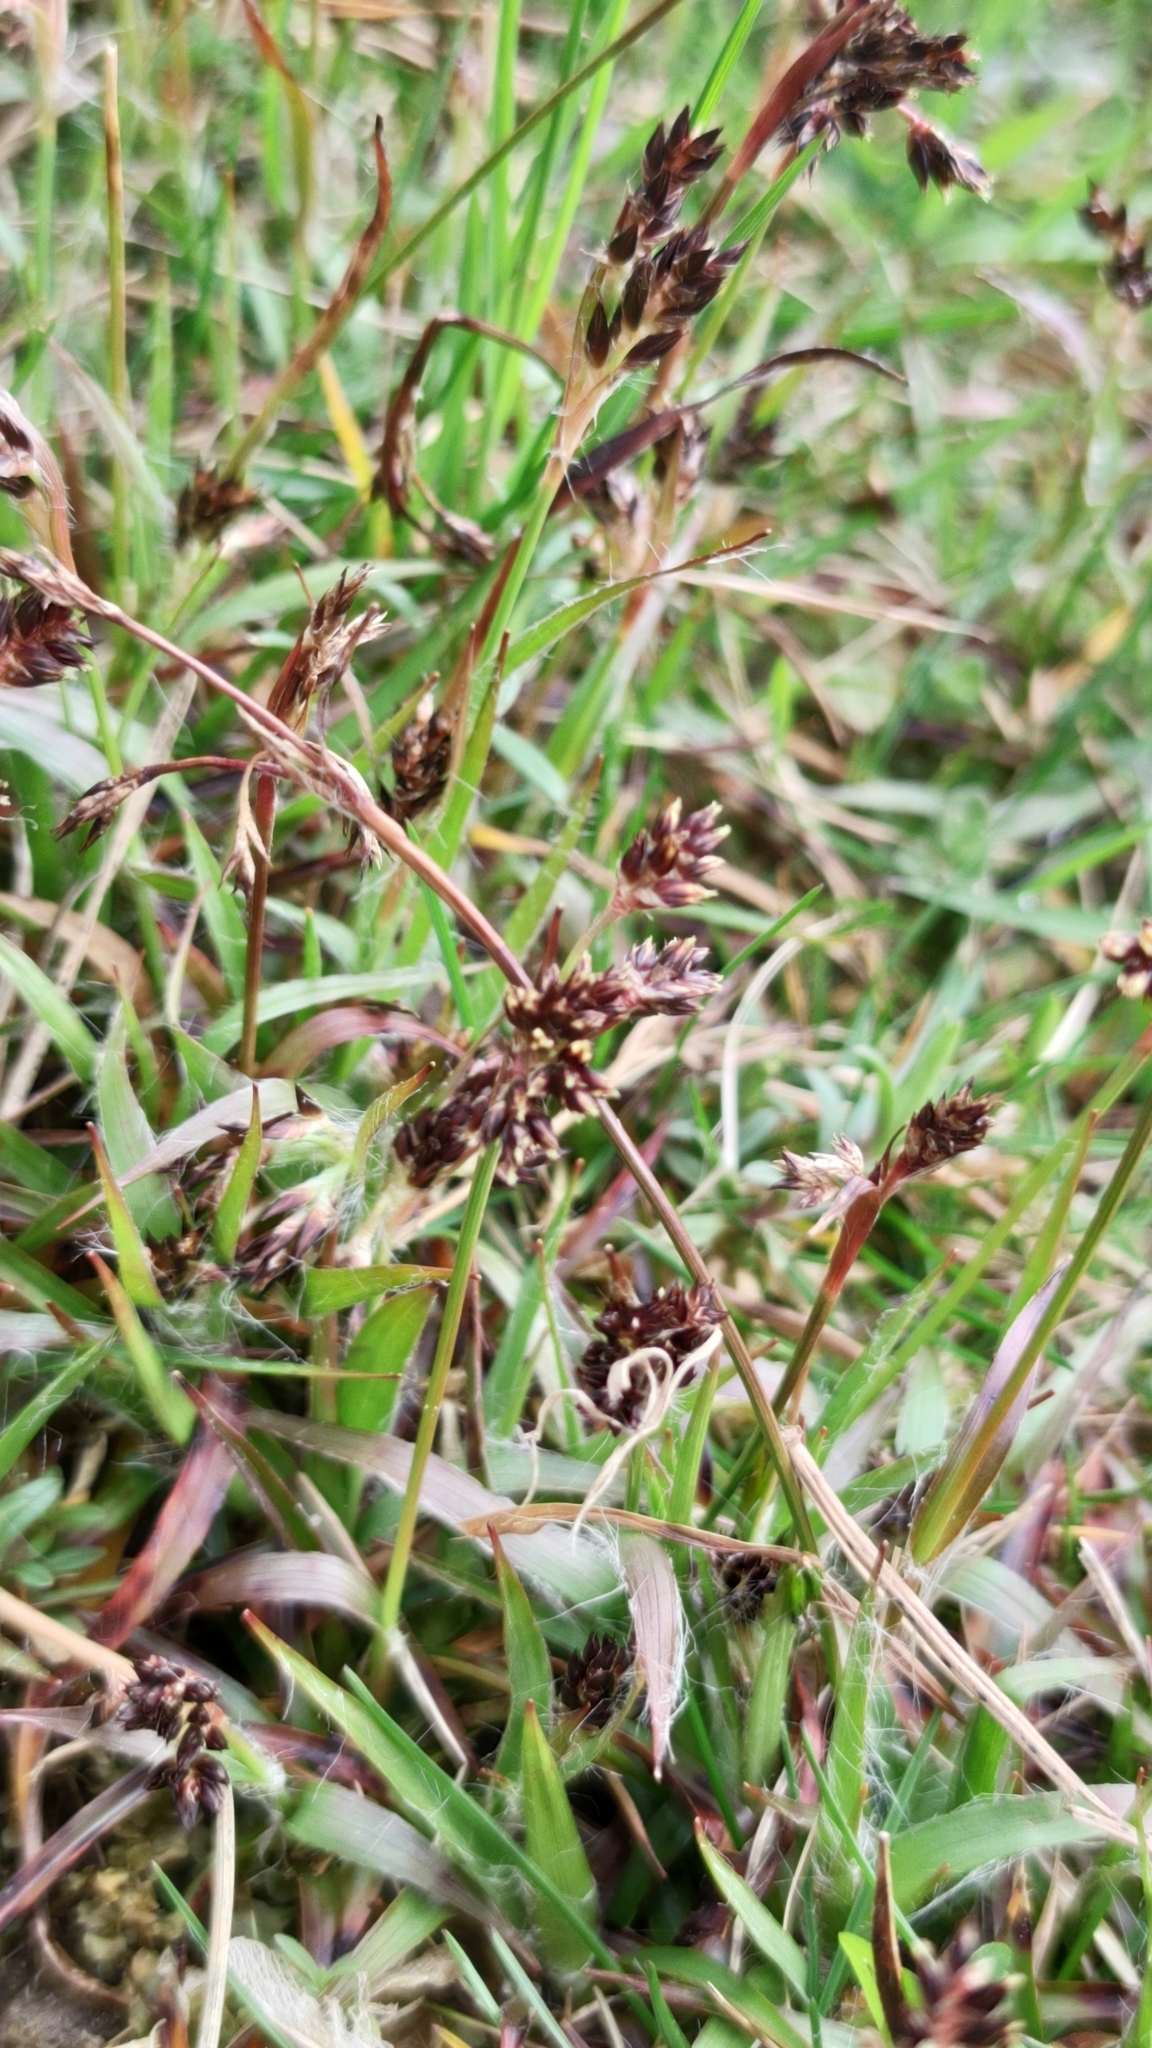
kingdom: Plantae
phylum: Tracheophyta
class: Liliopsida
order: Poales
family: Juncaceae
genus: Luzula
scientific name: Luzula campestris
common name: Field wood-rush
